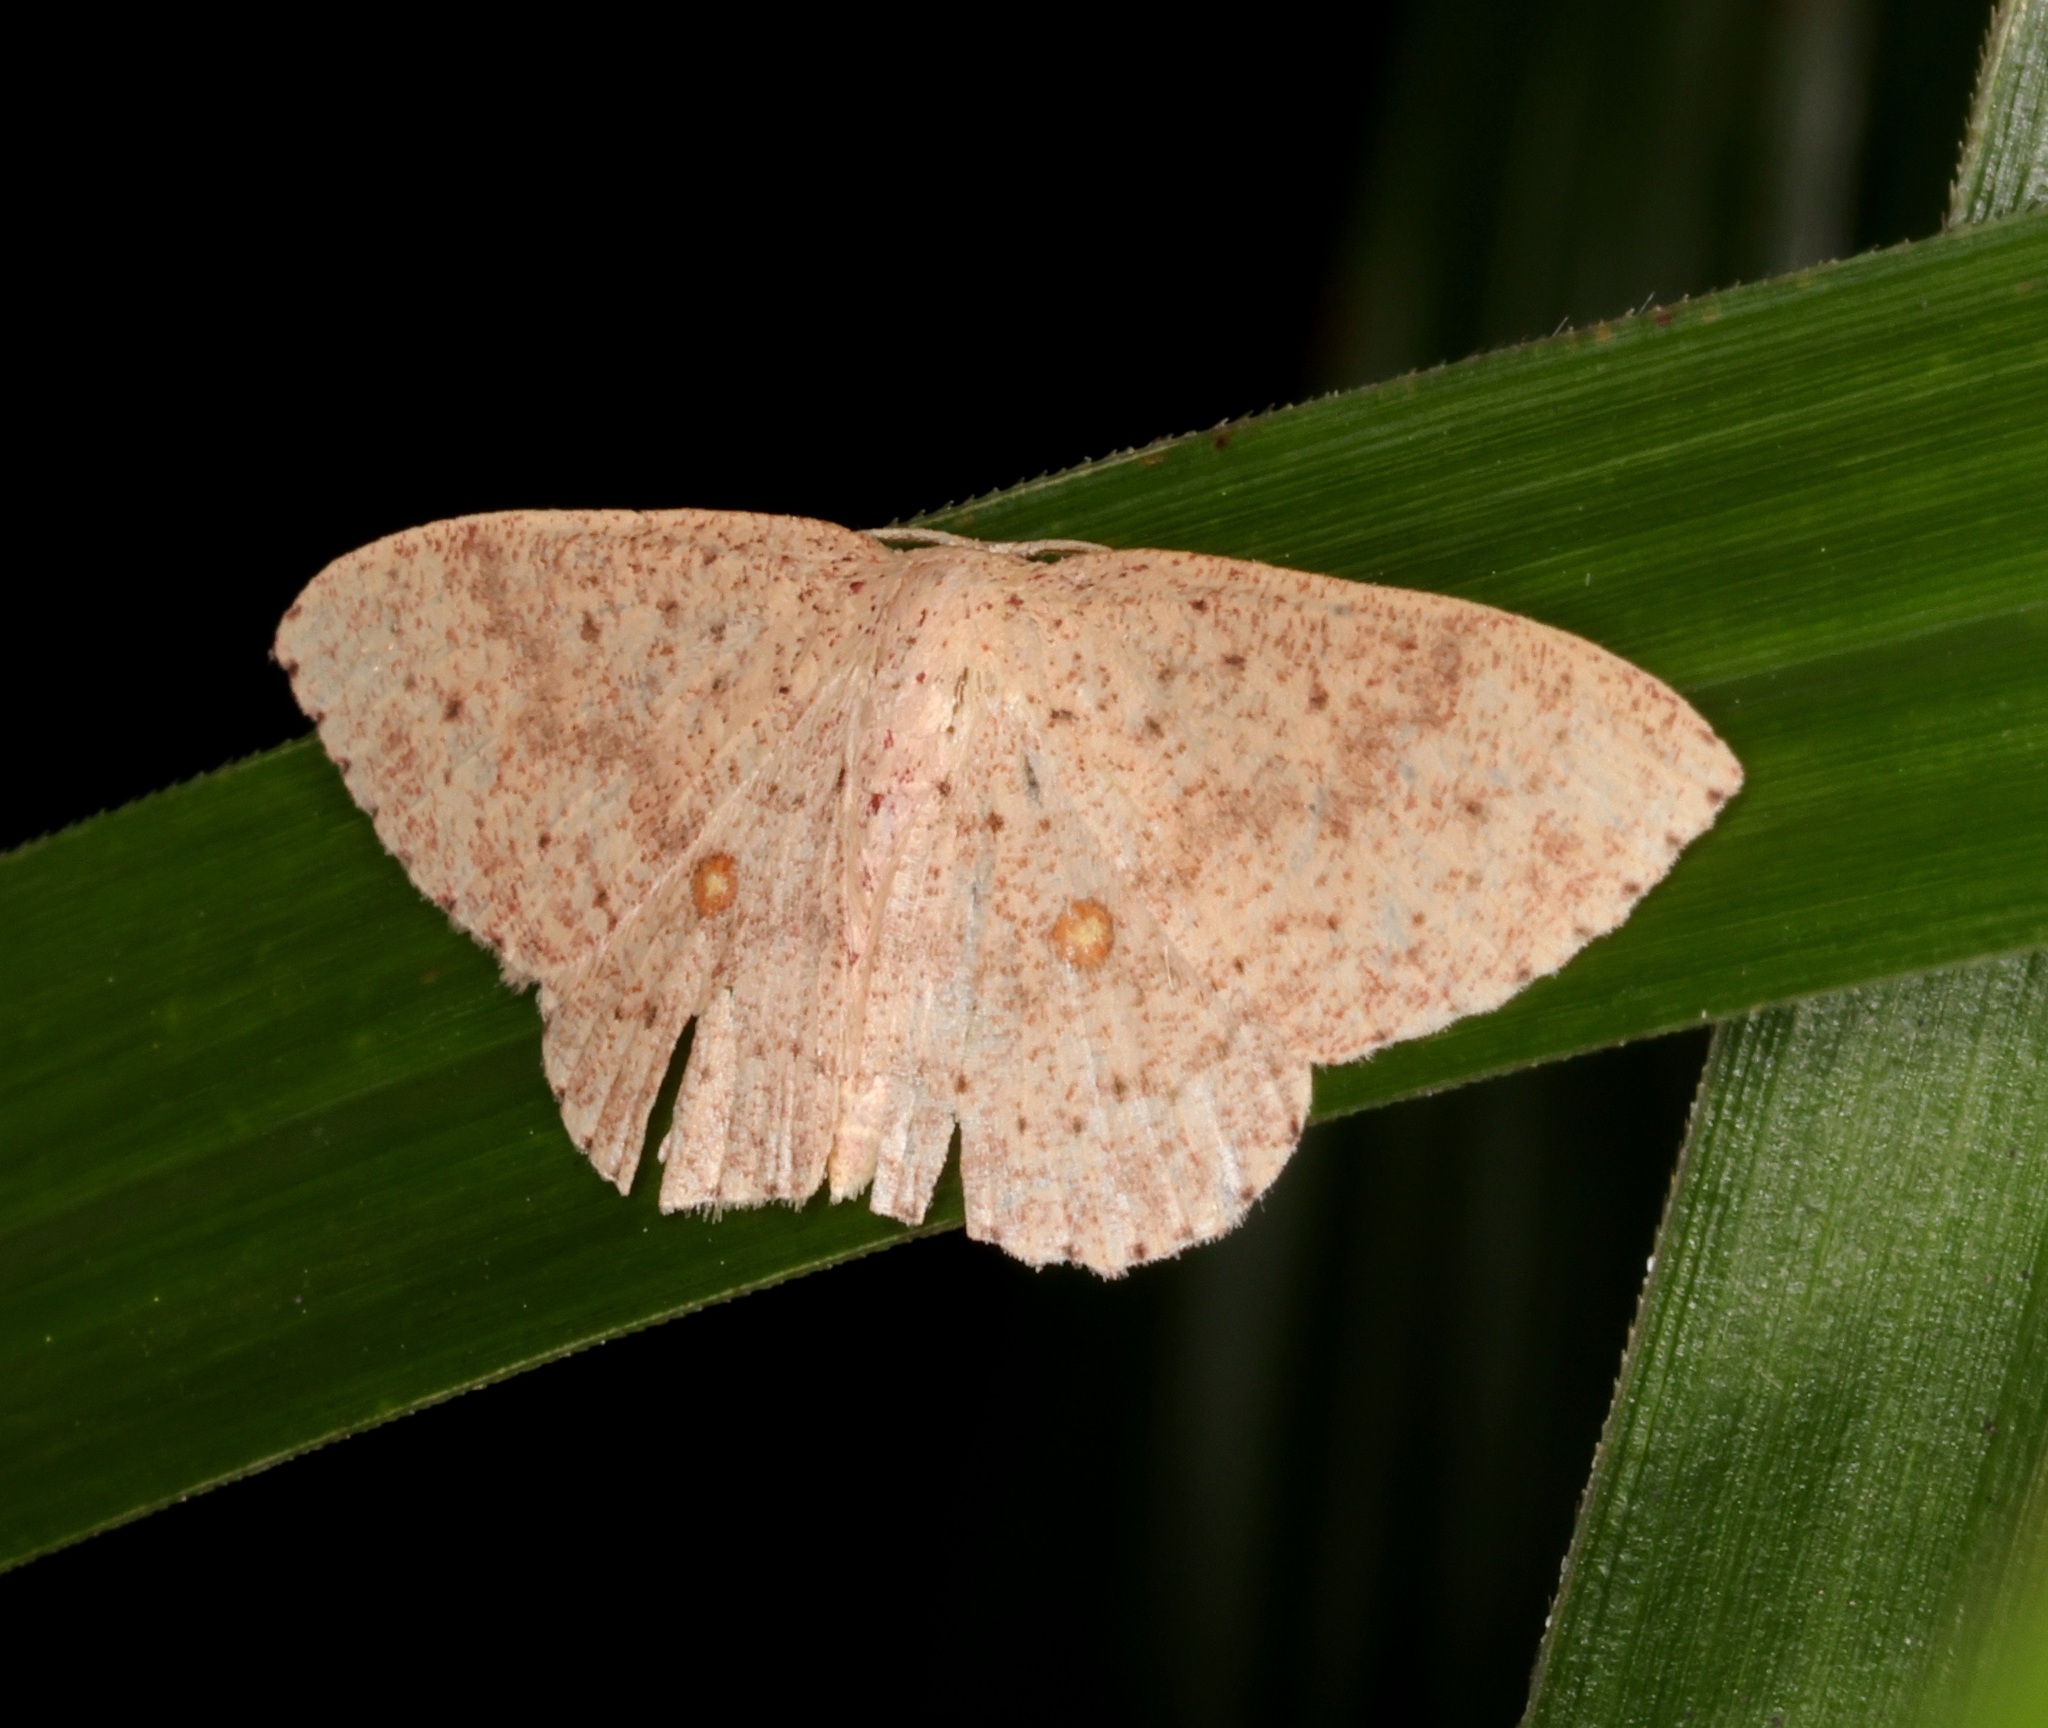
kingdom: Animalia
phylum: Arthropoda
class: Insecta
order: Lepidoptera
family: Geometridae
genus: Perixera
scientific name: Perixera flavispila
